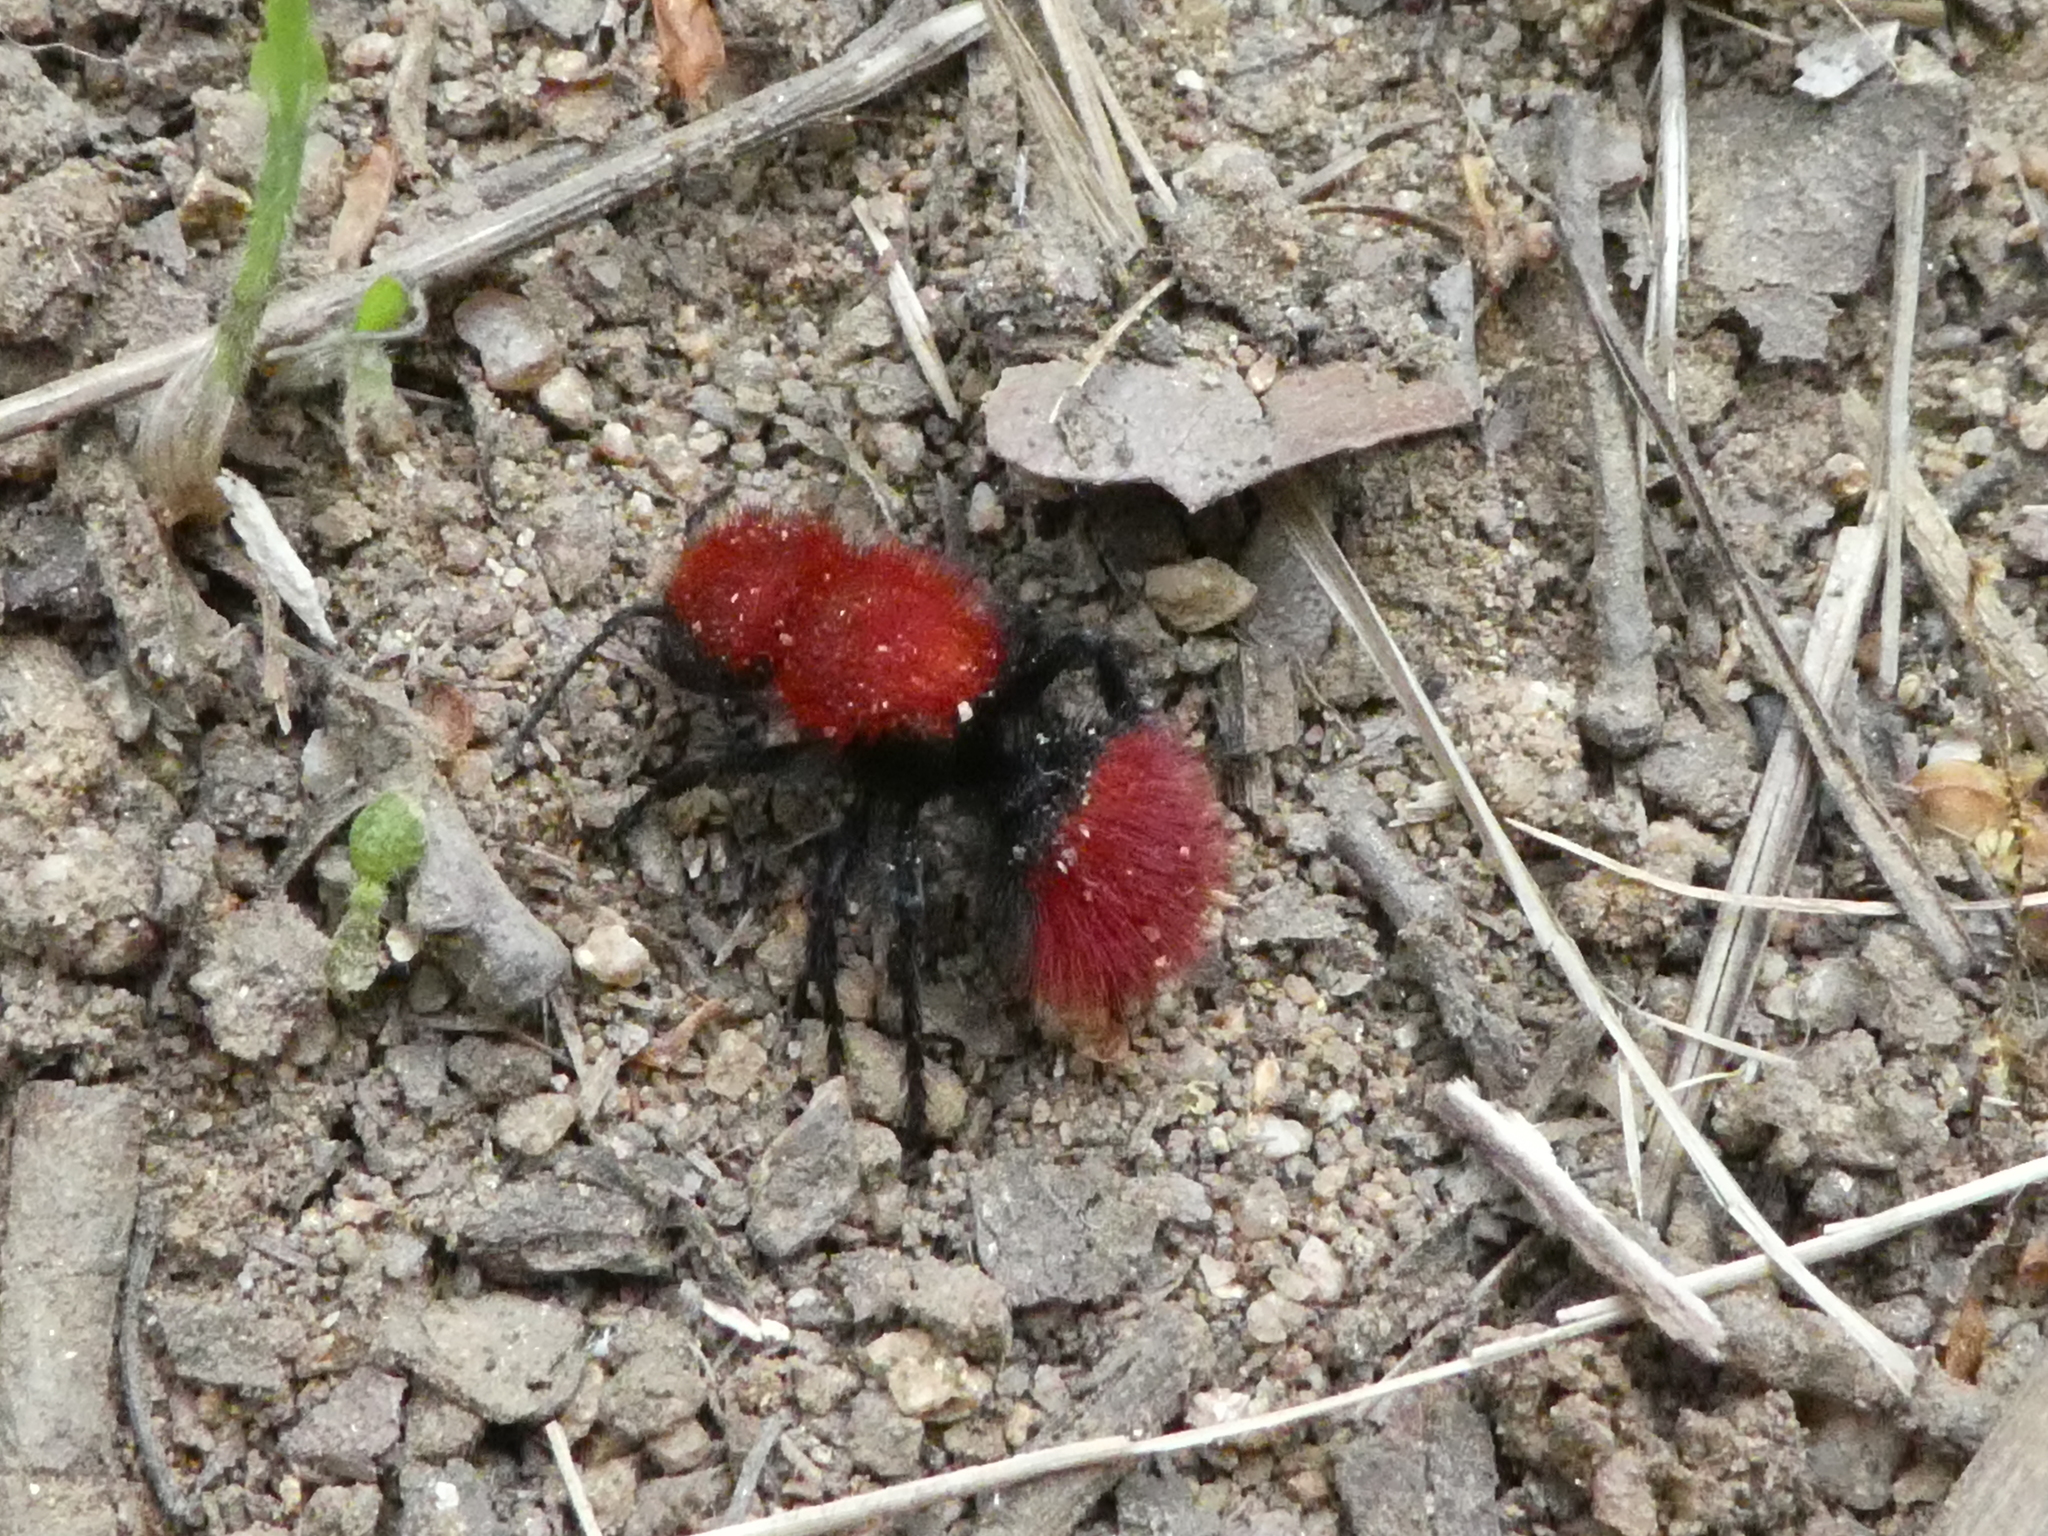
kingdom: Animalia
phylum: Arthropoda
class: Insecta
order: Hymenoptera
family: Mutillidae
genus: Dasymutilla
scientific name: Dasymutilla
